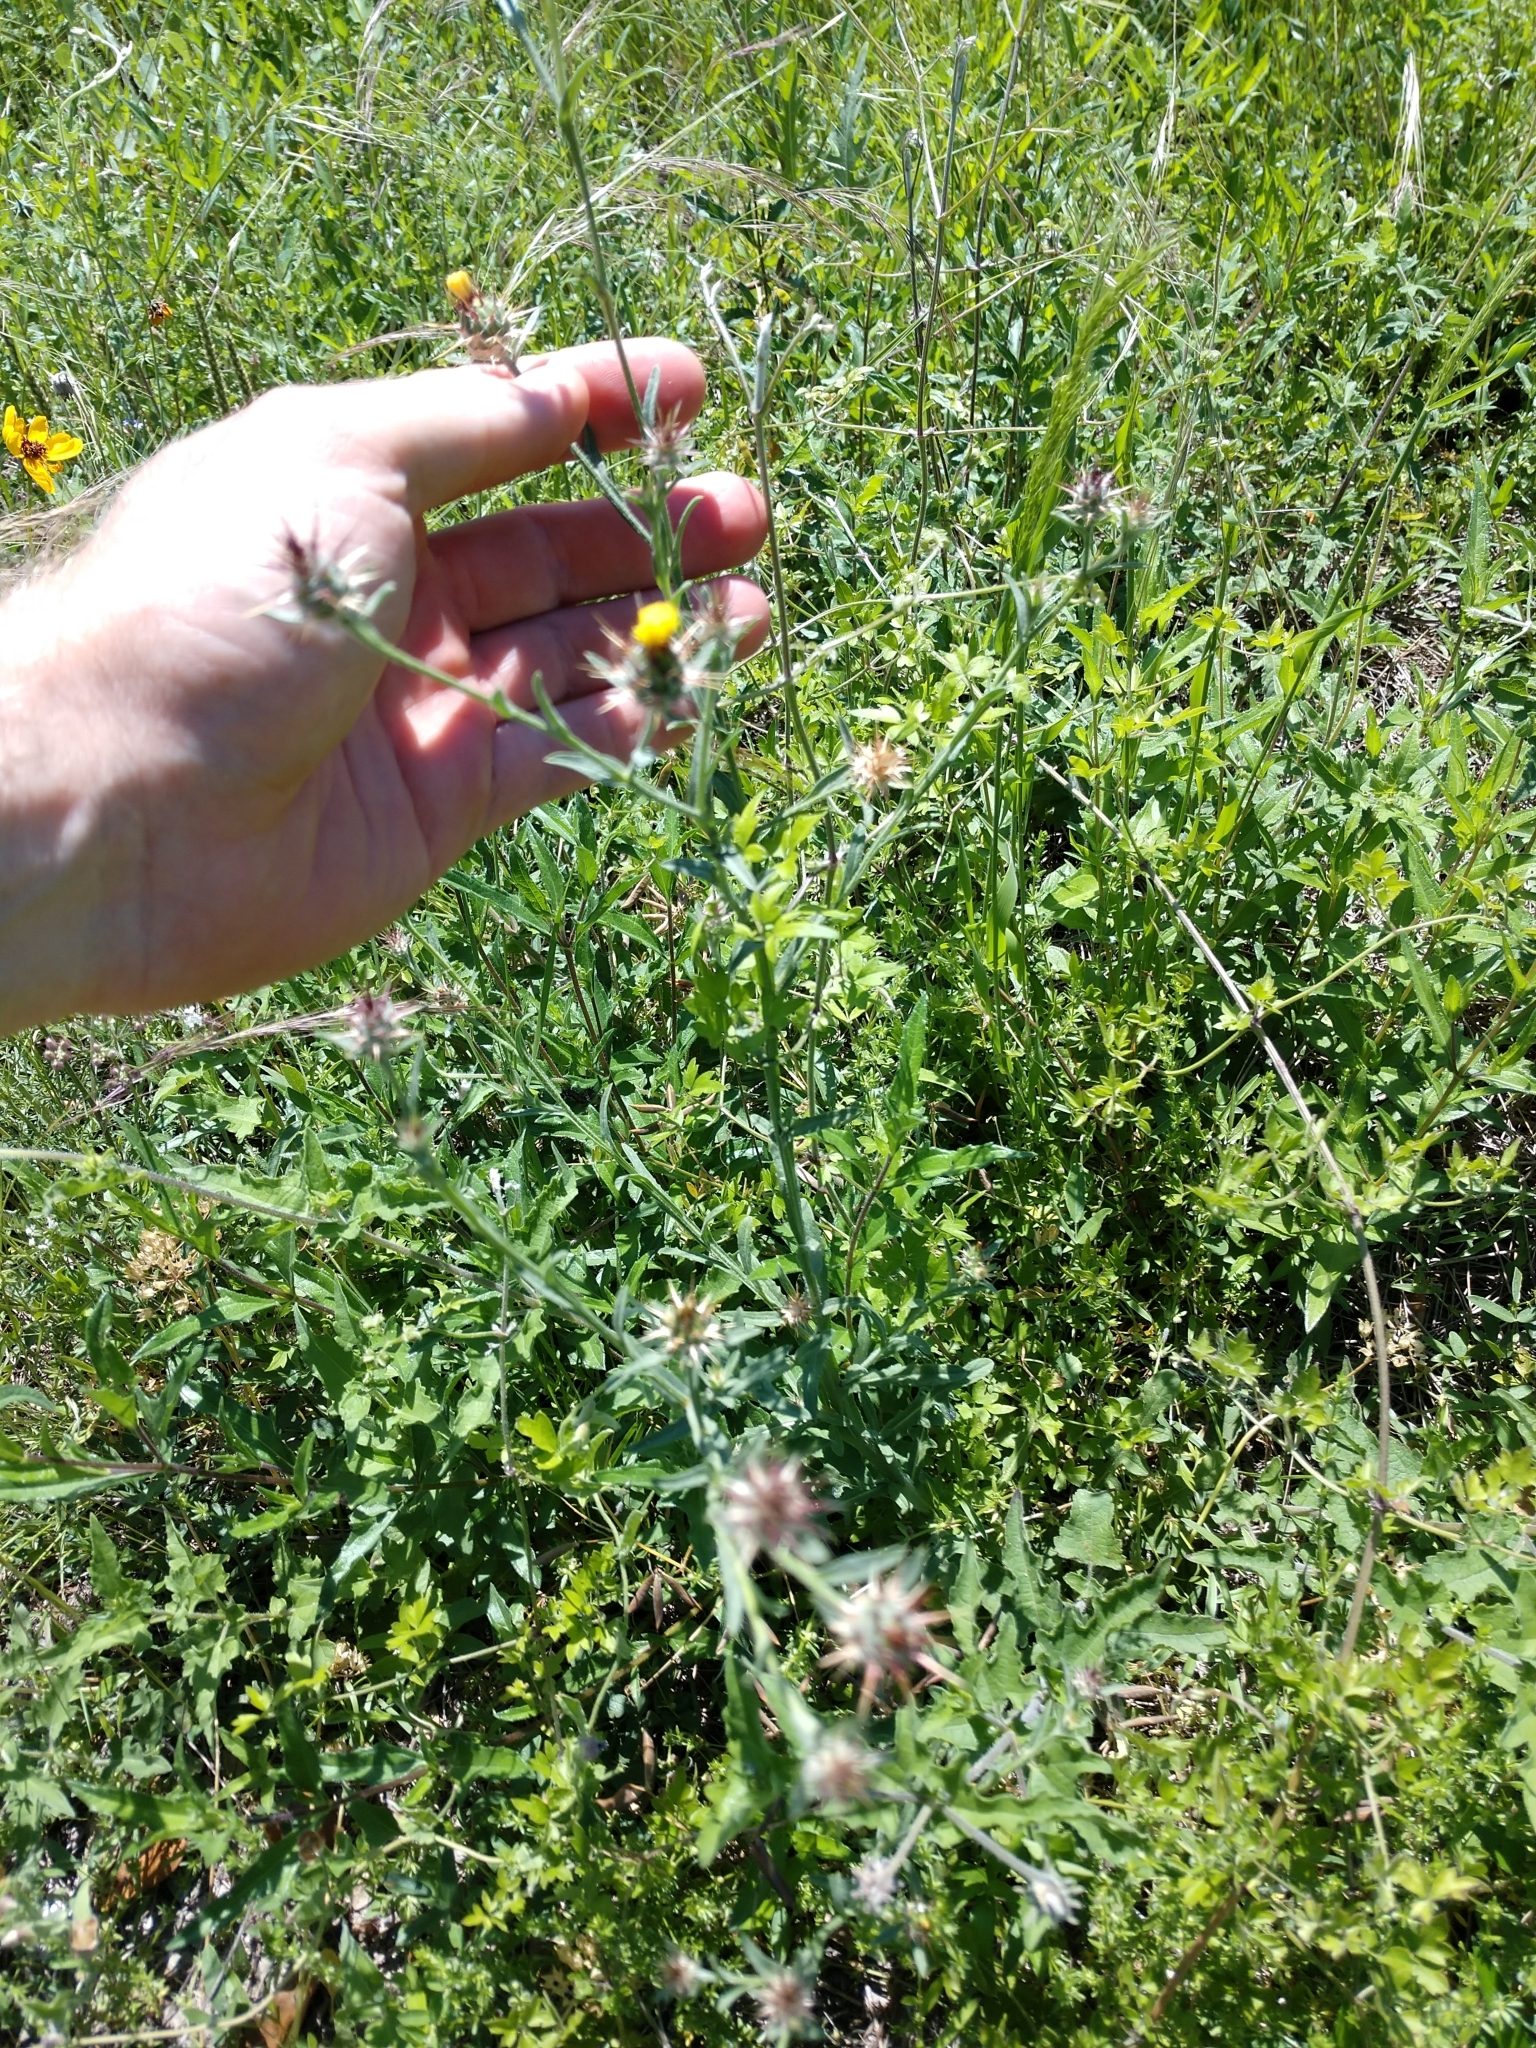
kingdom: Plantae
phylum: Tracheophyta
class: Magnoliopsida
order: Asterales
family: Asteraceae
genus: Centaurea
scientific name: Centaurea melitensis
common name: Maltese star-thistle
